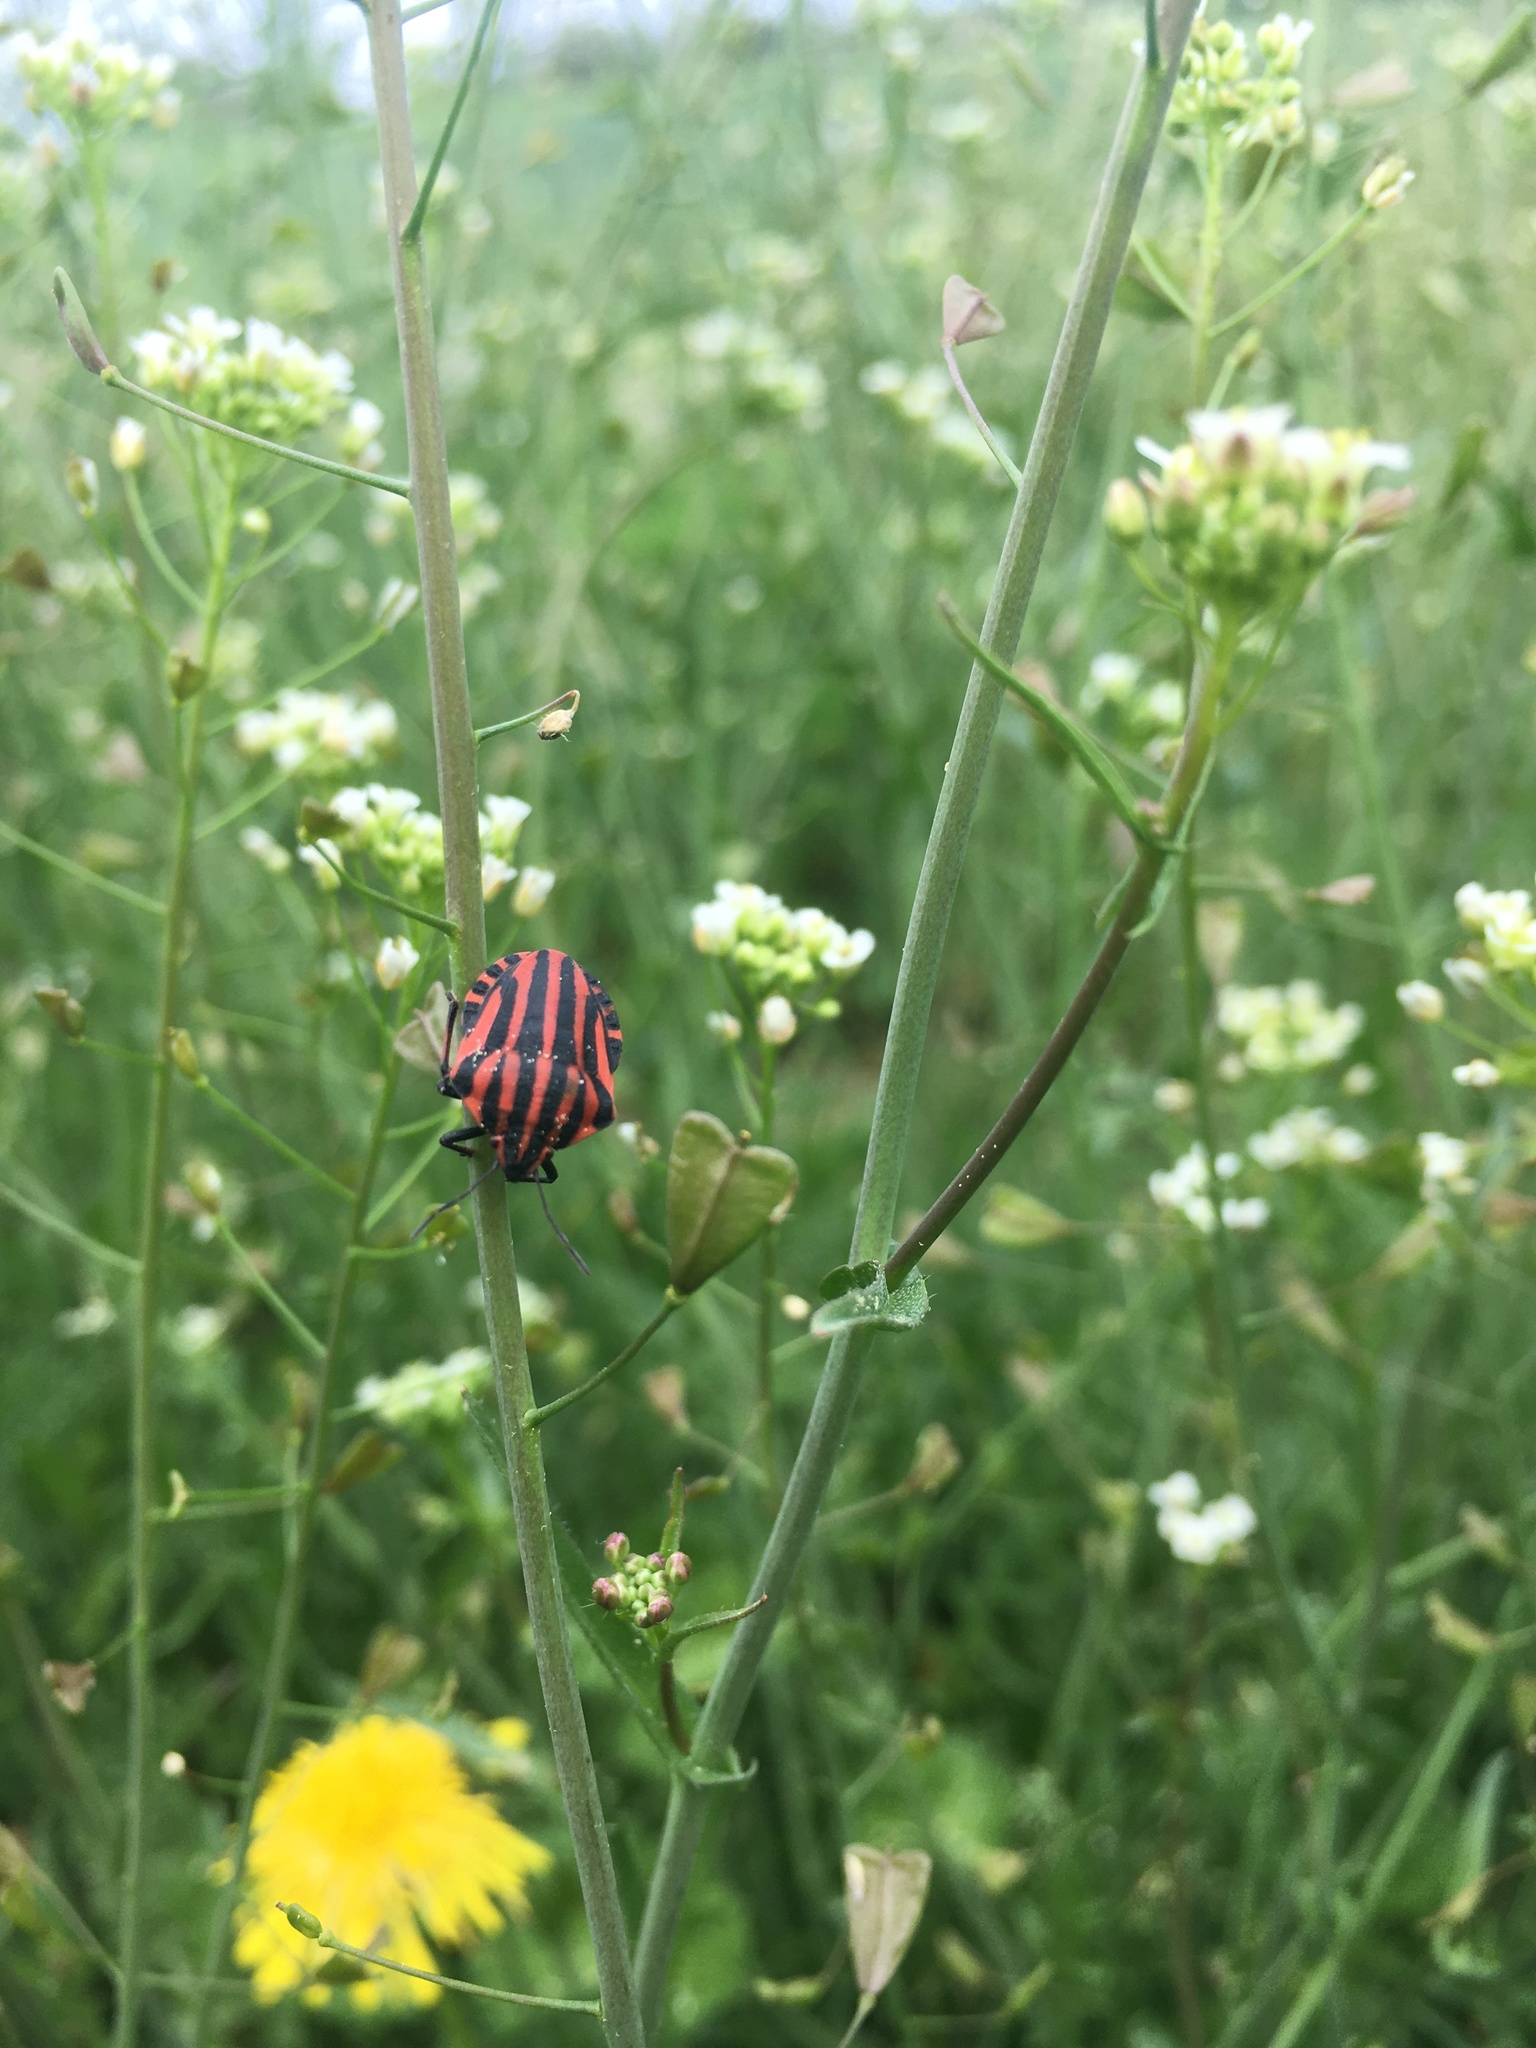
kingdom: Animalia
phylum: Arthropoda
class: Insecta
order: Hemiptera
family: Pentatomidae
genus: Graphosoma
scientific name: Graphosoma italicum
